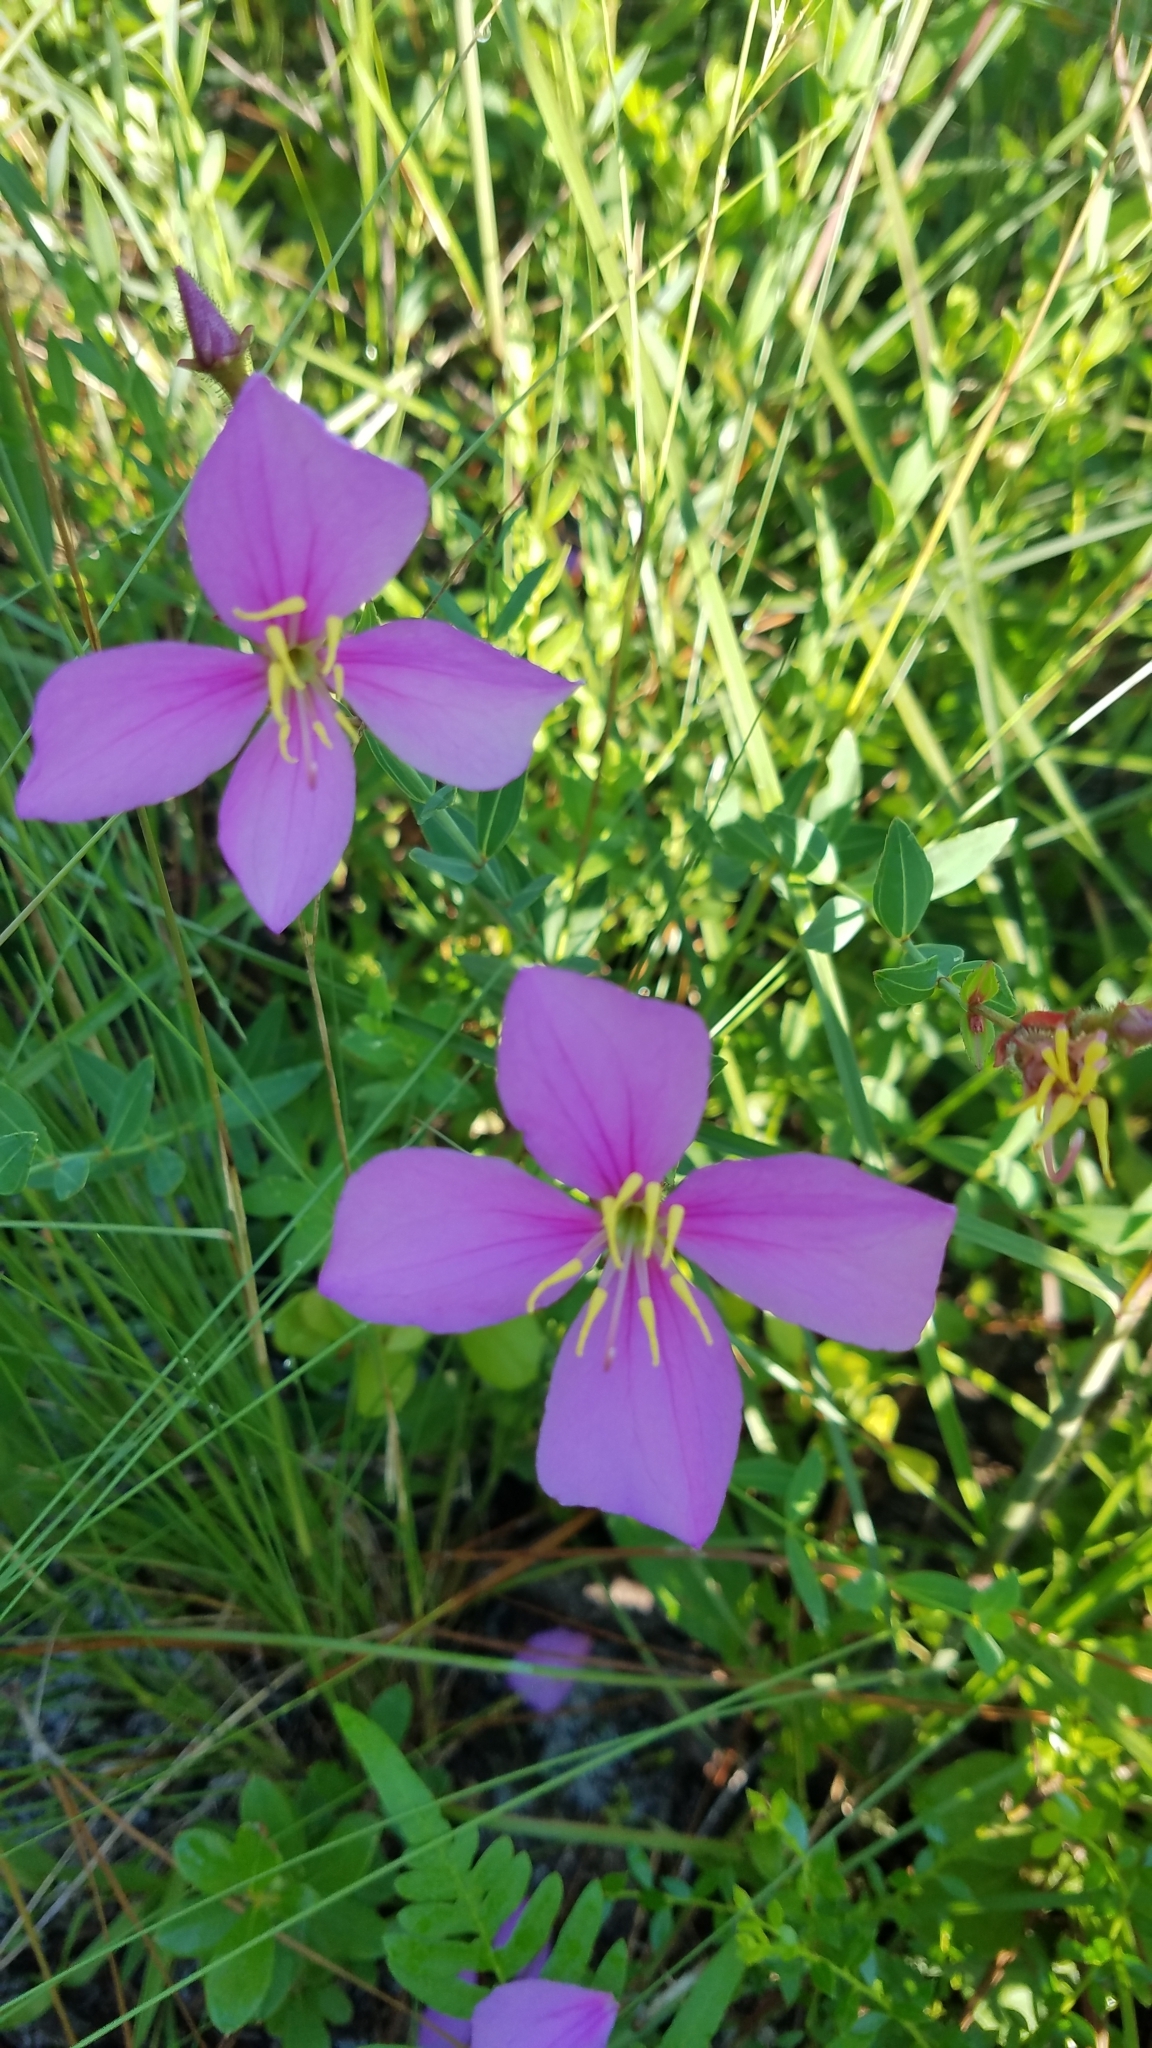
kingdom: Plantae
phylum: Tracheophyta
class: Magnoliopsida
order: Myrtales
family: Melastomataceae
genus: Rhexia
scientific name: Rhexia alifanus
